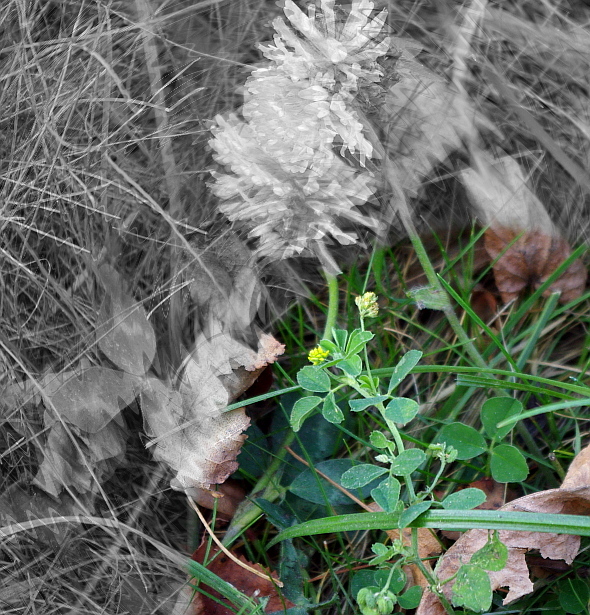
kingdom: Plantae
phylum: Tracheophyta
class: Magnoliopsida
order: Fabales
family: Fabaceae
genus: Medicago
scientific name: Medicago lupulina
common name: Black medick
